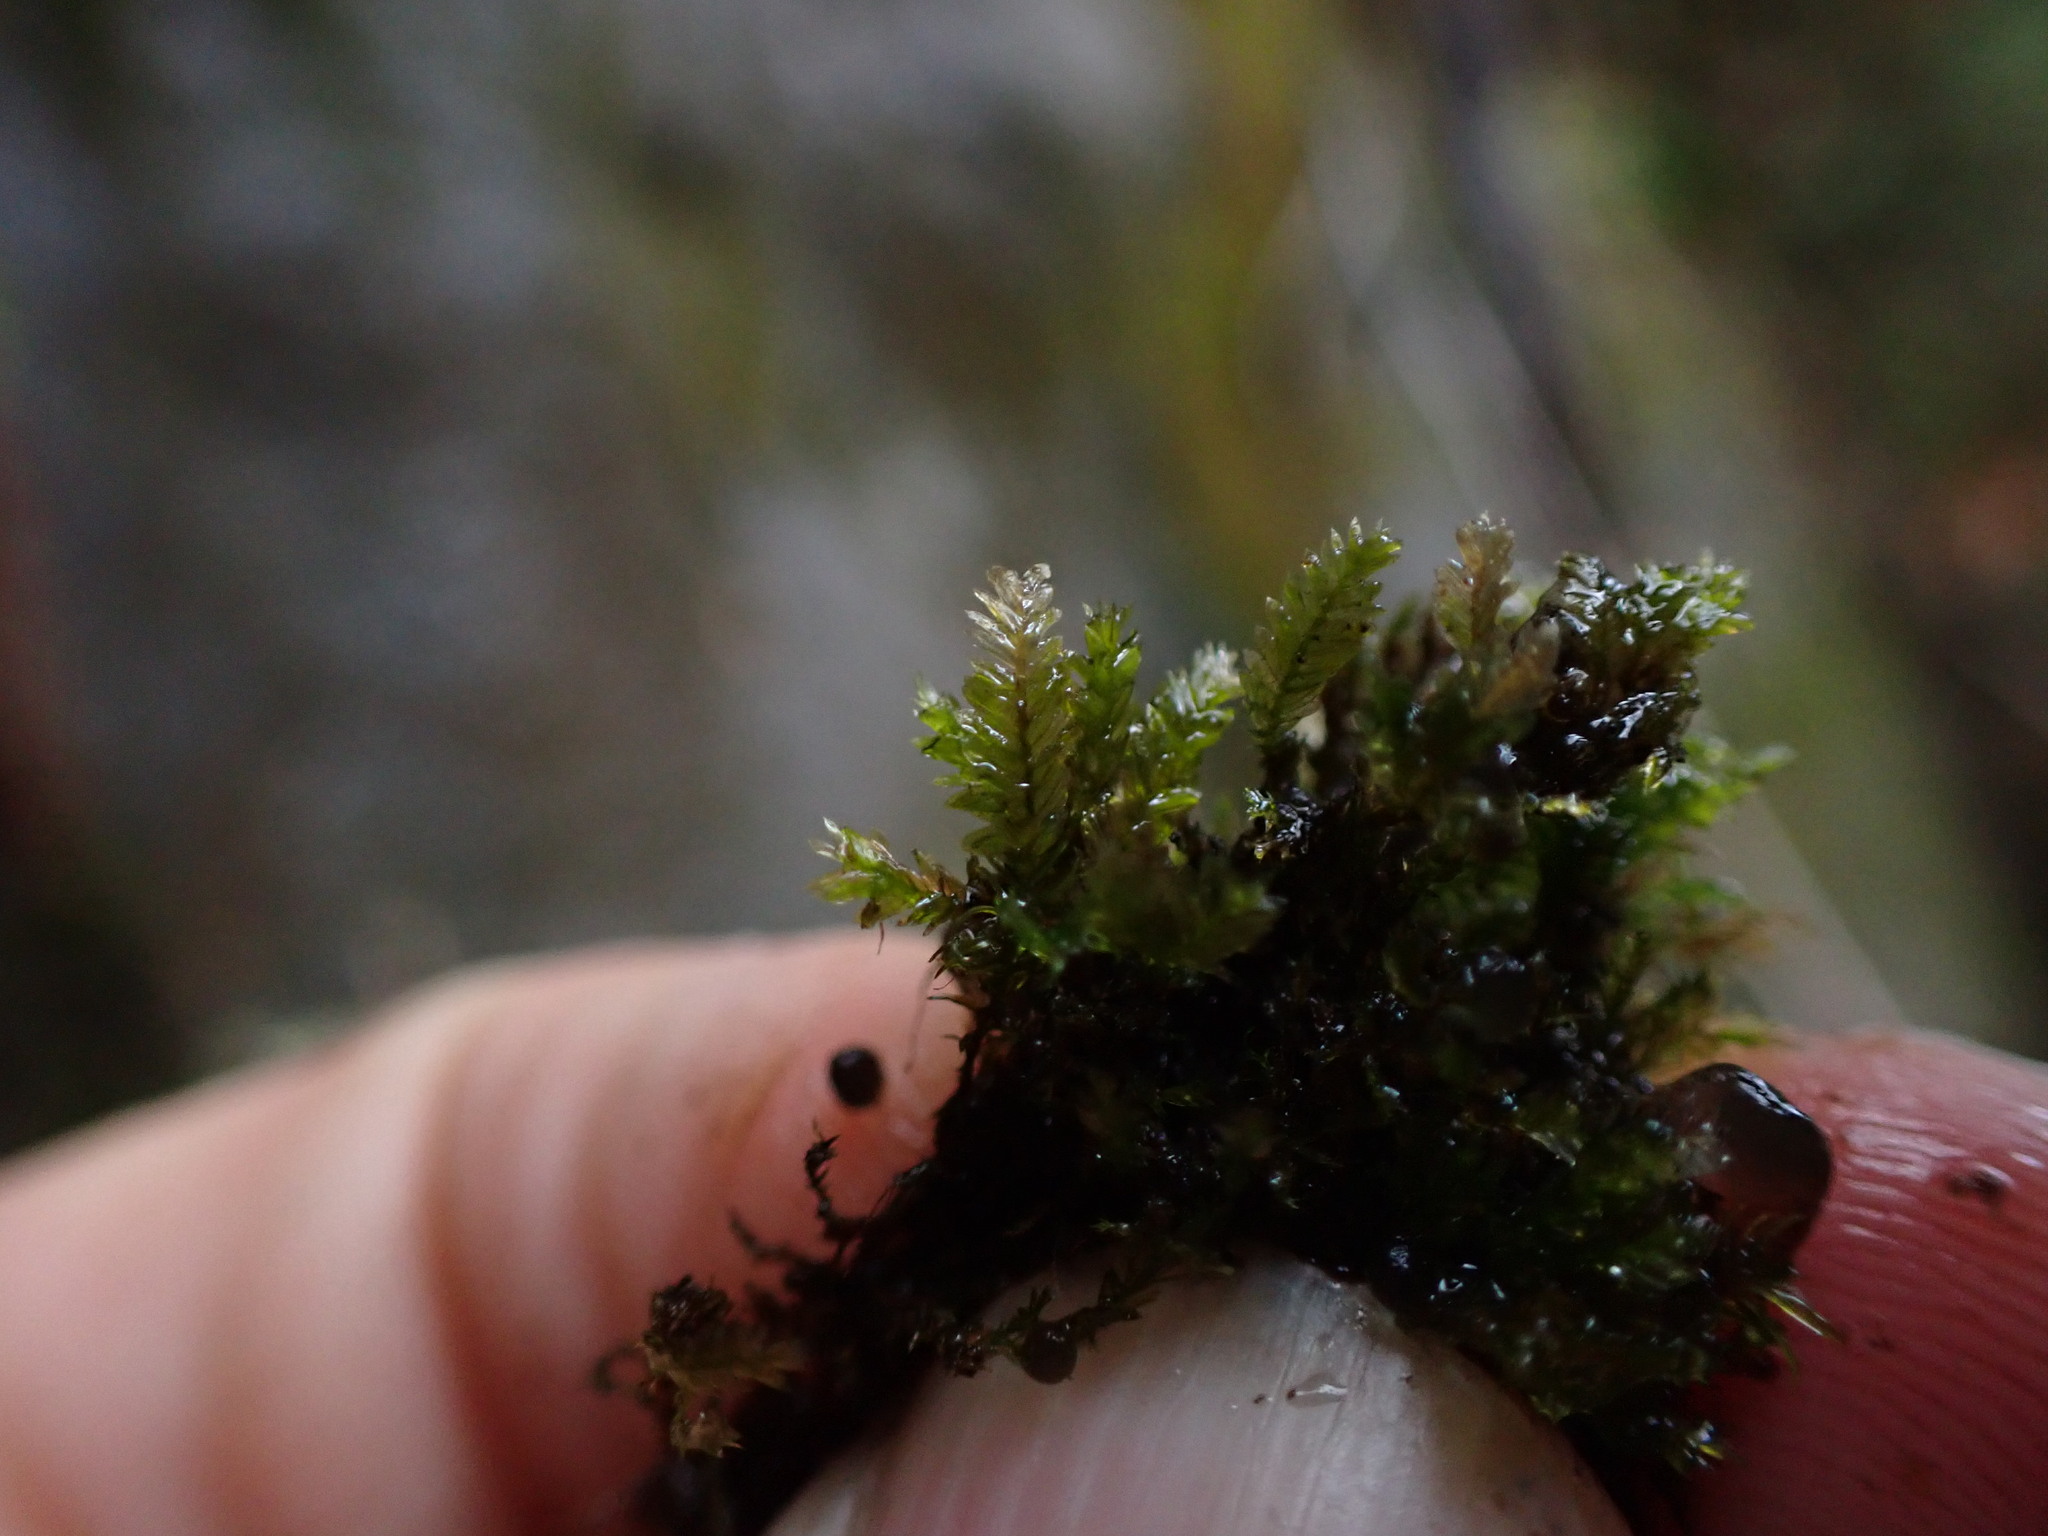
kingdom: Plantae
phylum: Bryophyta
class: Bryopsida
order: Hypnales
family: Neckeraceae
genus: Dannorrisia
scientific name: Dannorrisia bigelovii
